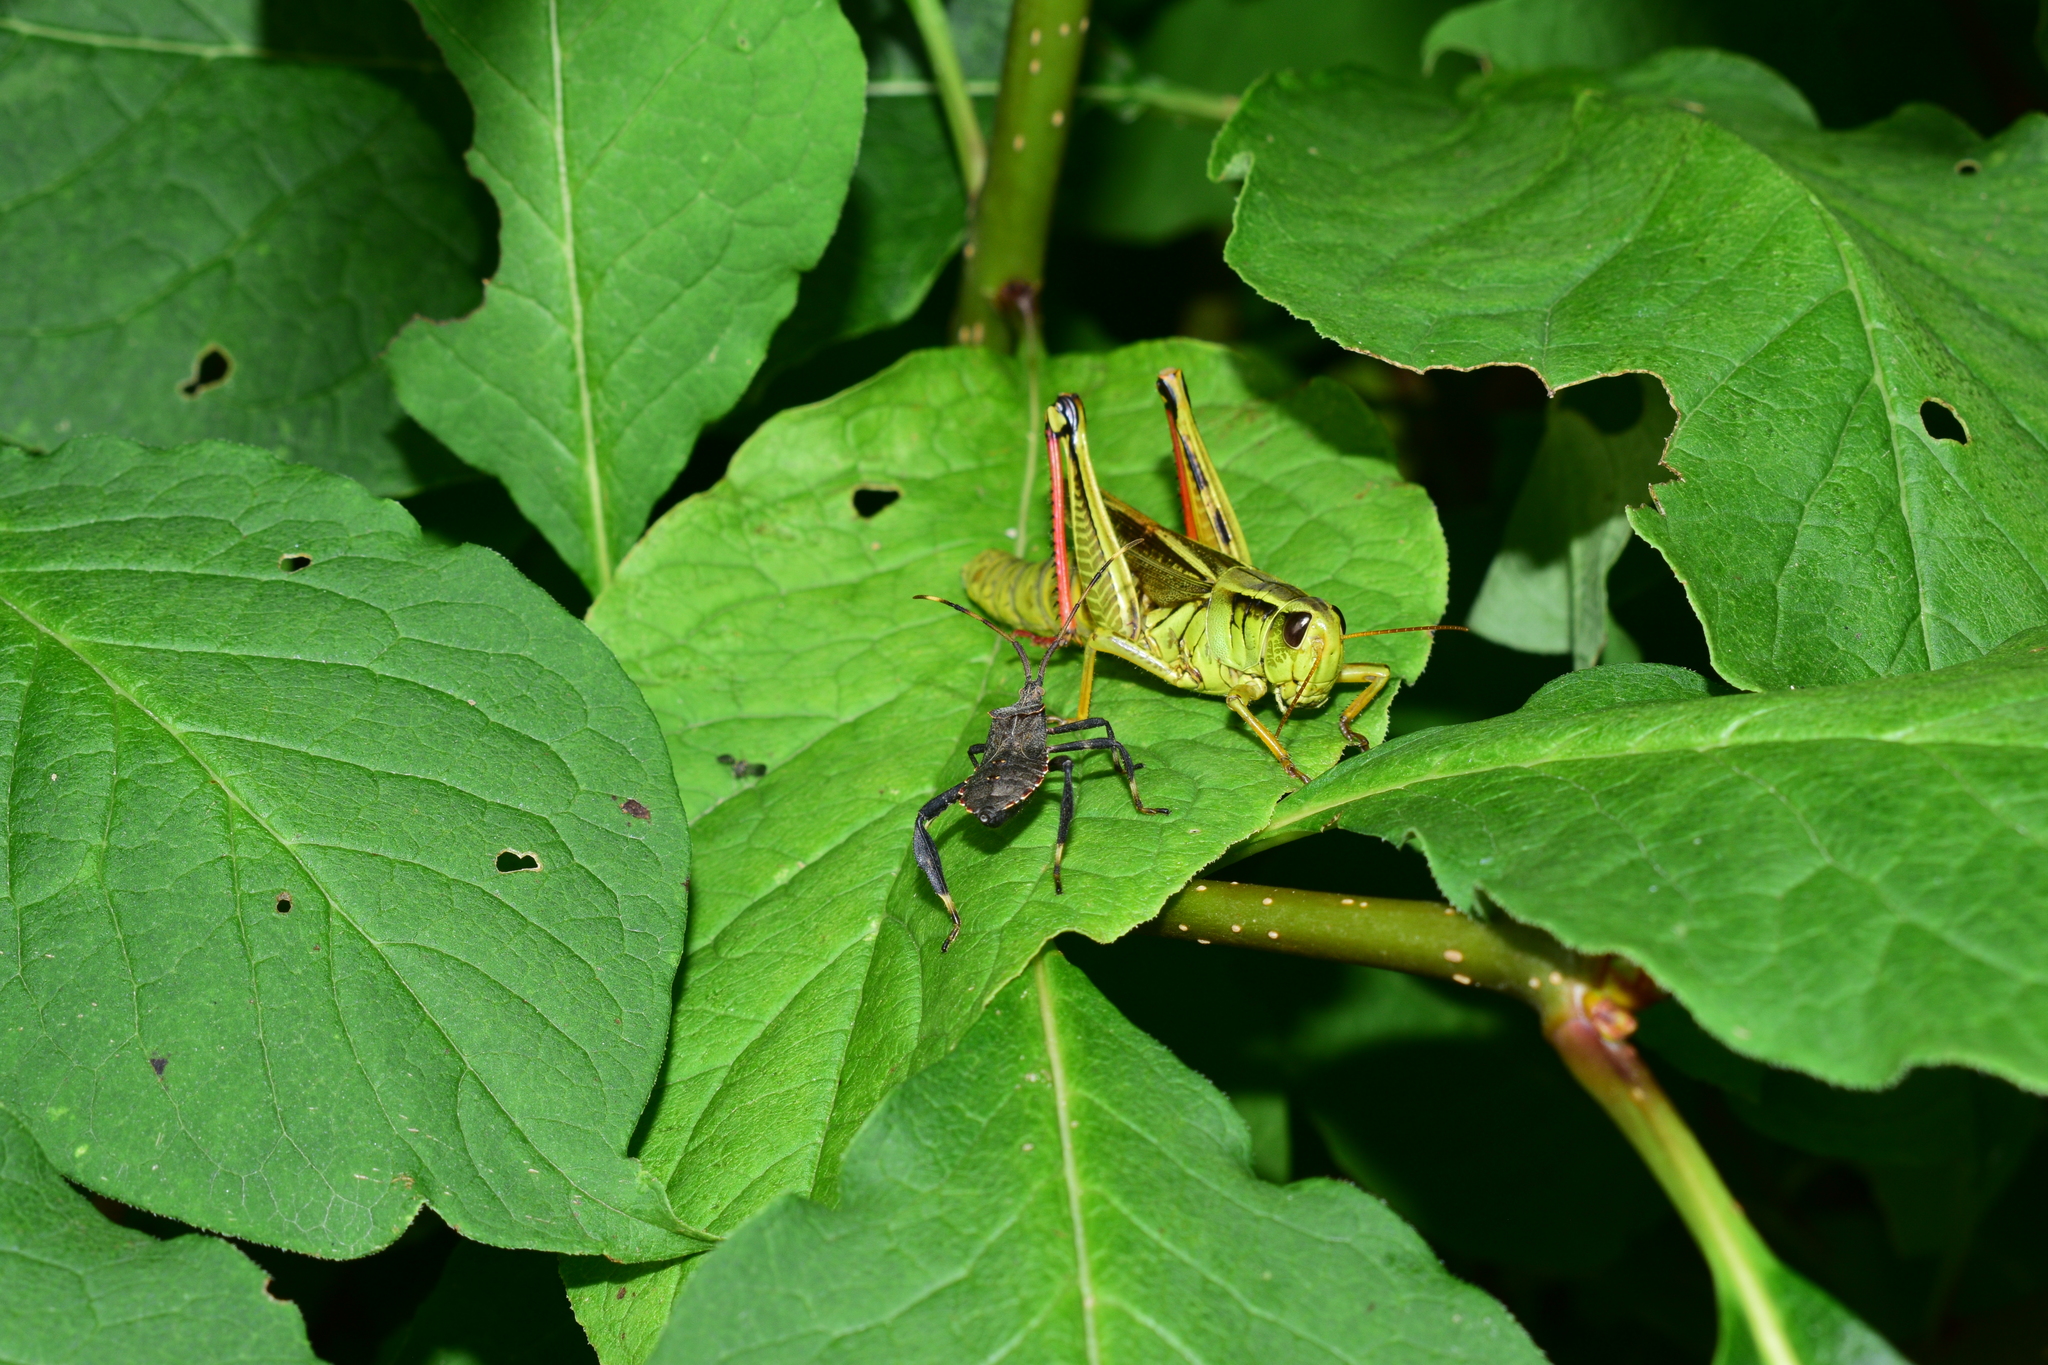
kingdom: Animalia
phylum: Arthropoda
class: Insecta
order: Orthoptera
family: Acrididae
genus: Melanoplus
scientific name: Melanoplus bivittatus
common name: Two-striped grasshopper
